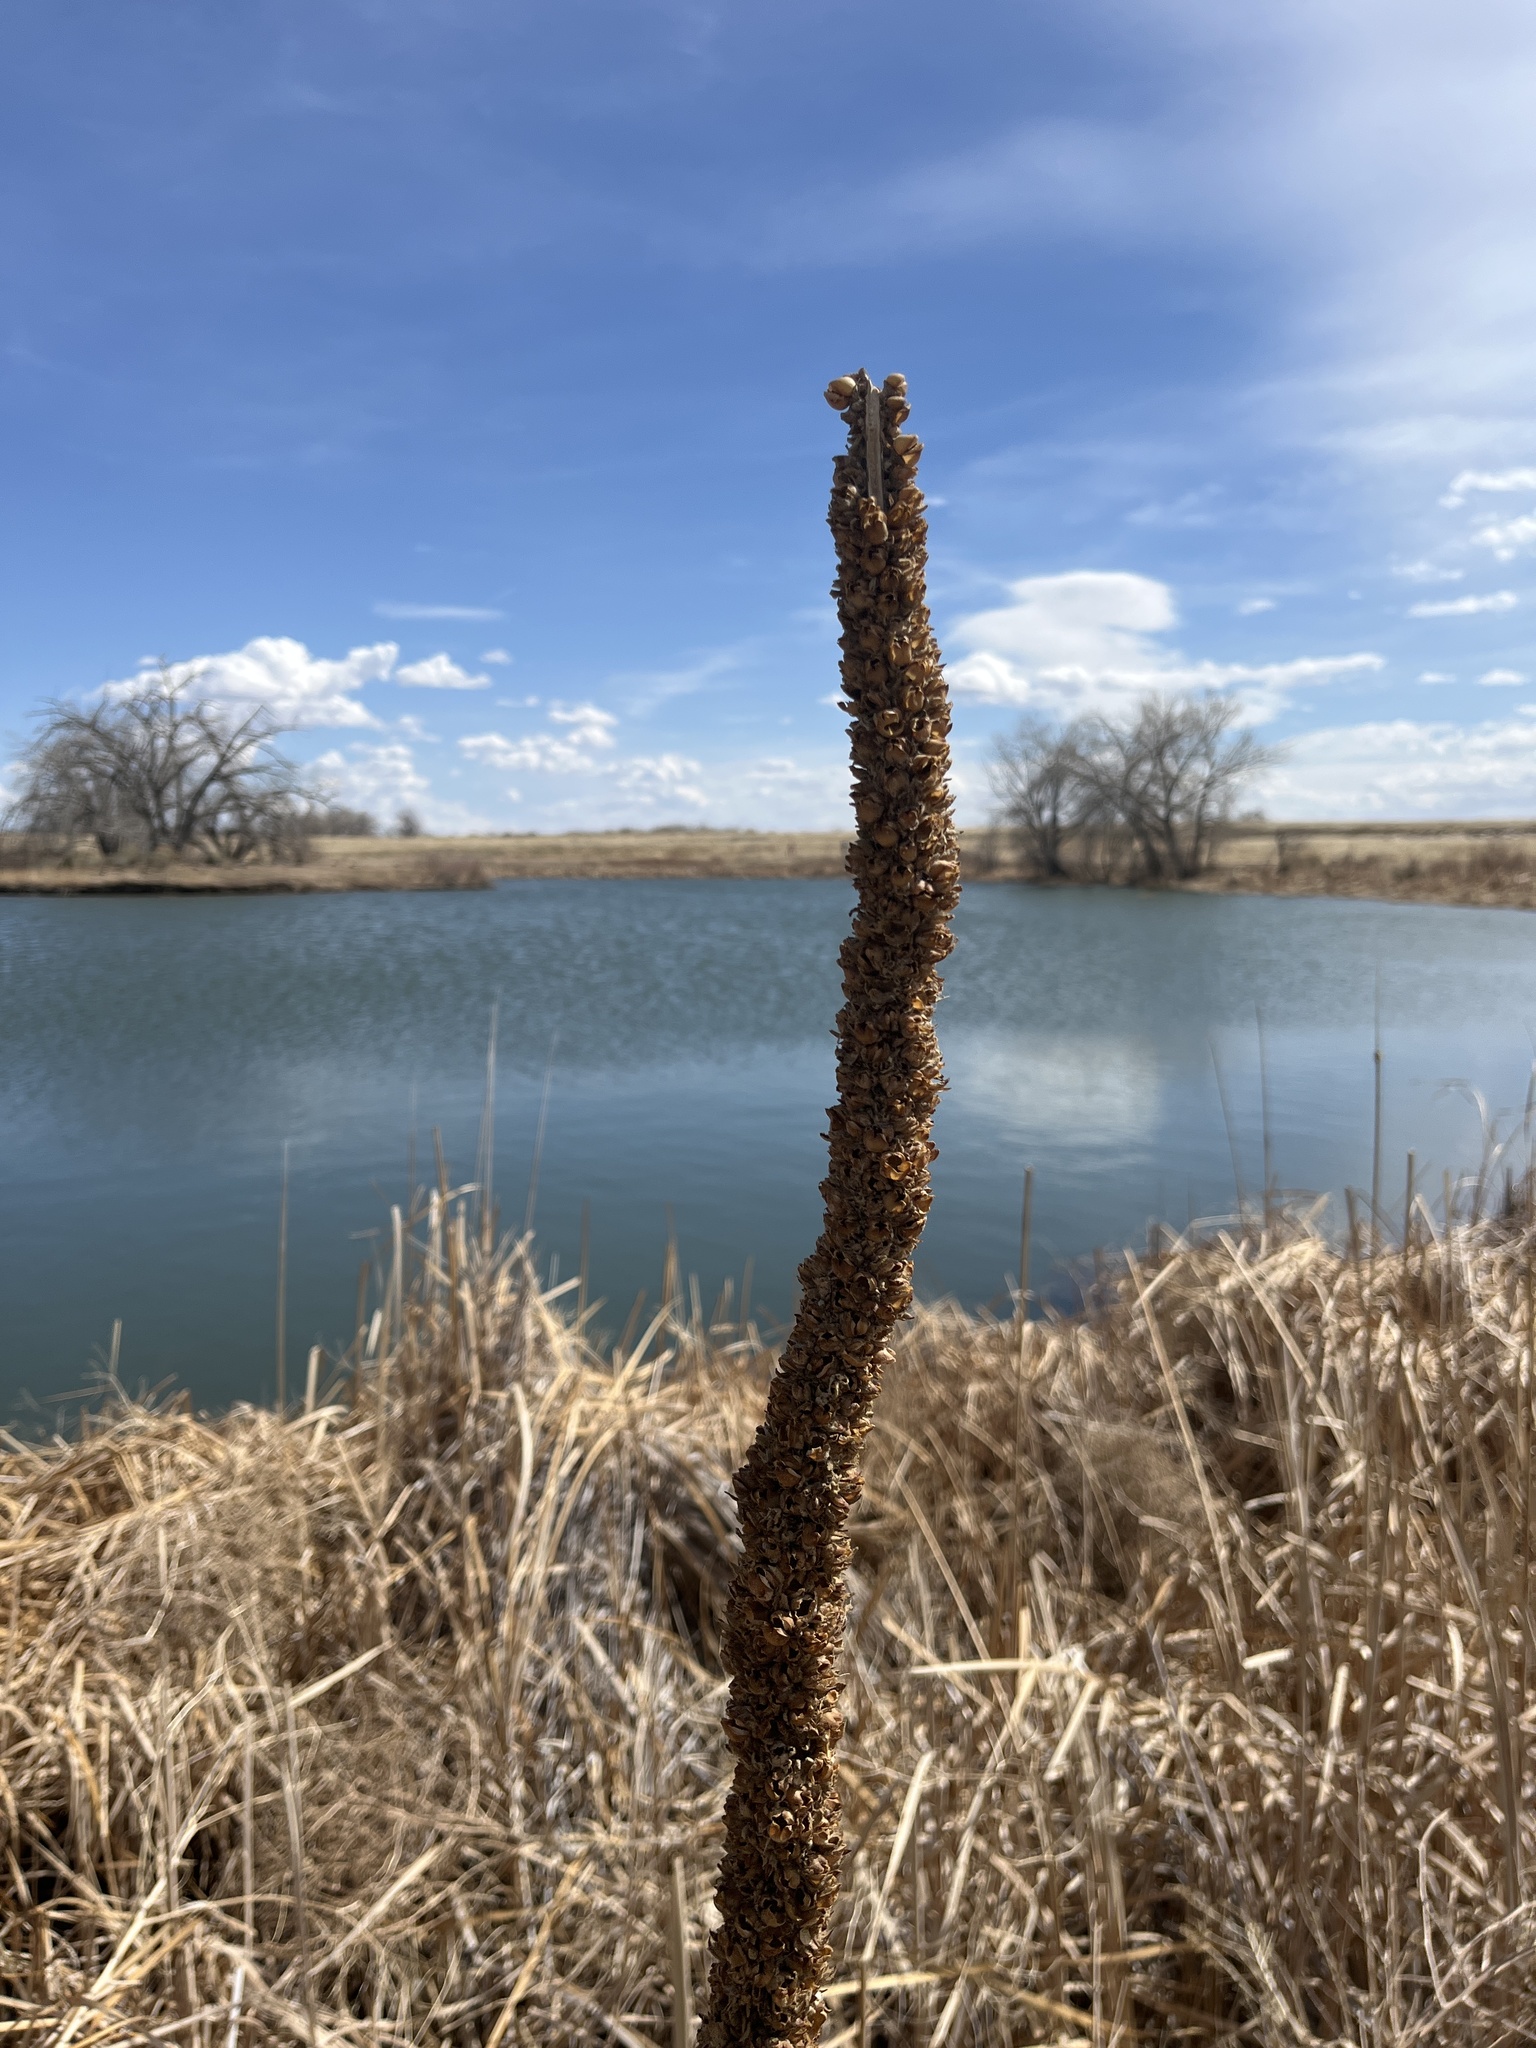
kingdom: Plantae
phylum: Tracheophyta
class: Magnoliopsida
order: Lamiales
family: Scrophulariaceae
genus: Verbascum
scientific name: Verbascum thapsus
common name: Common mullein
